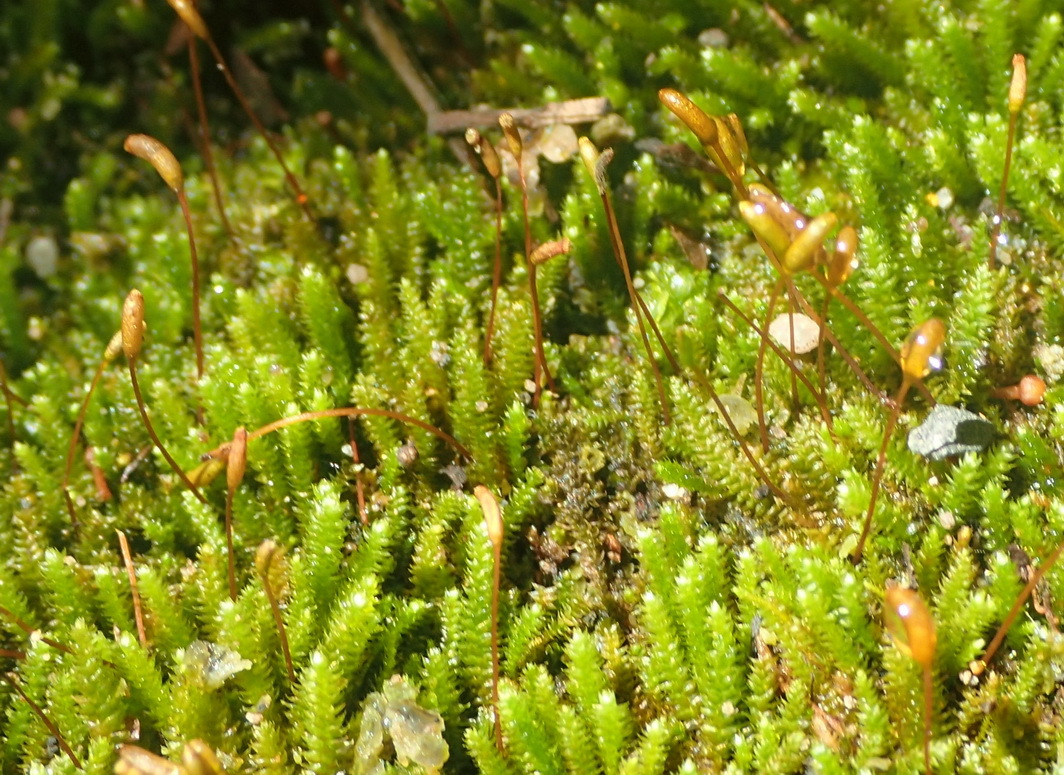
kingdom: Plantae
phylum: Bryophyta
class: Bryopsida
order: Hypnales
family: Leucodontaceae
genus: Pterogoniadelphus
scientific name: Pterogoniadelphus assimilis
